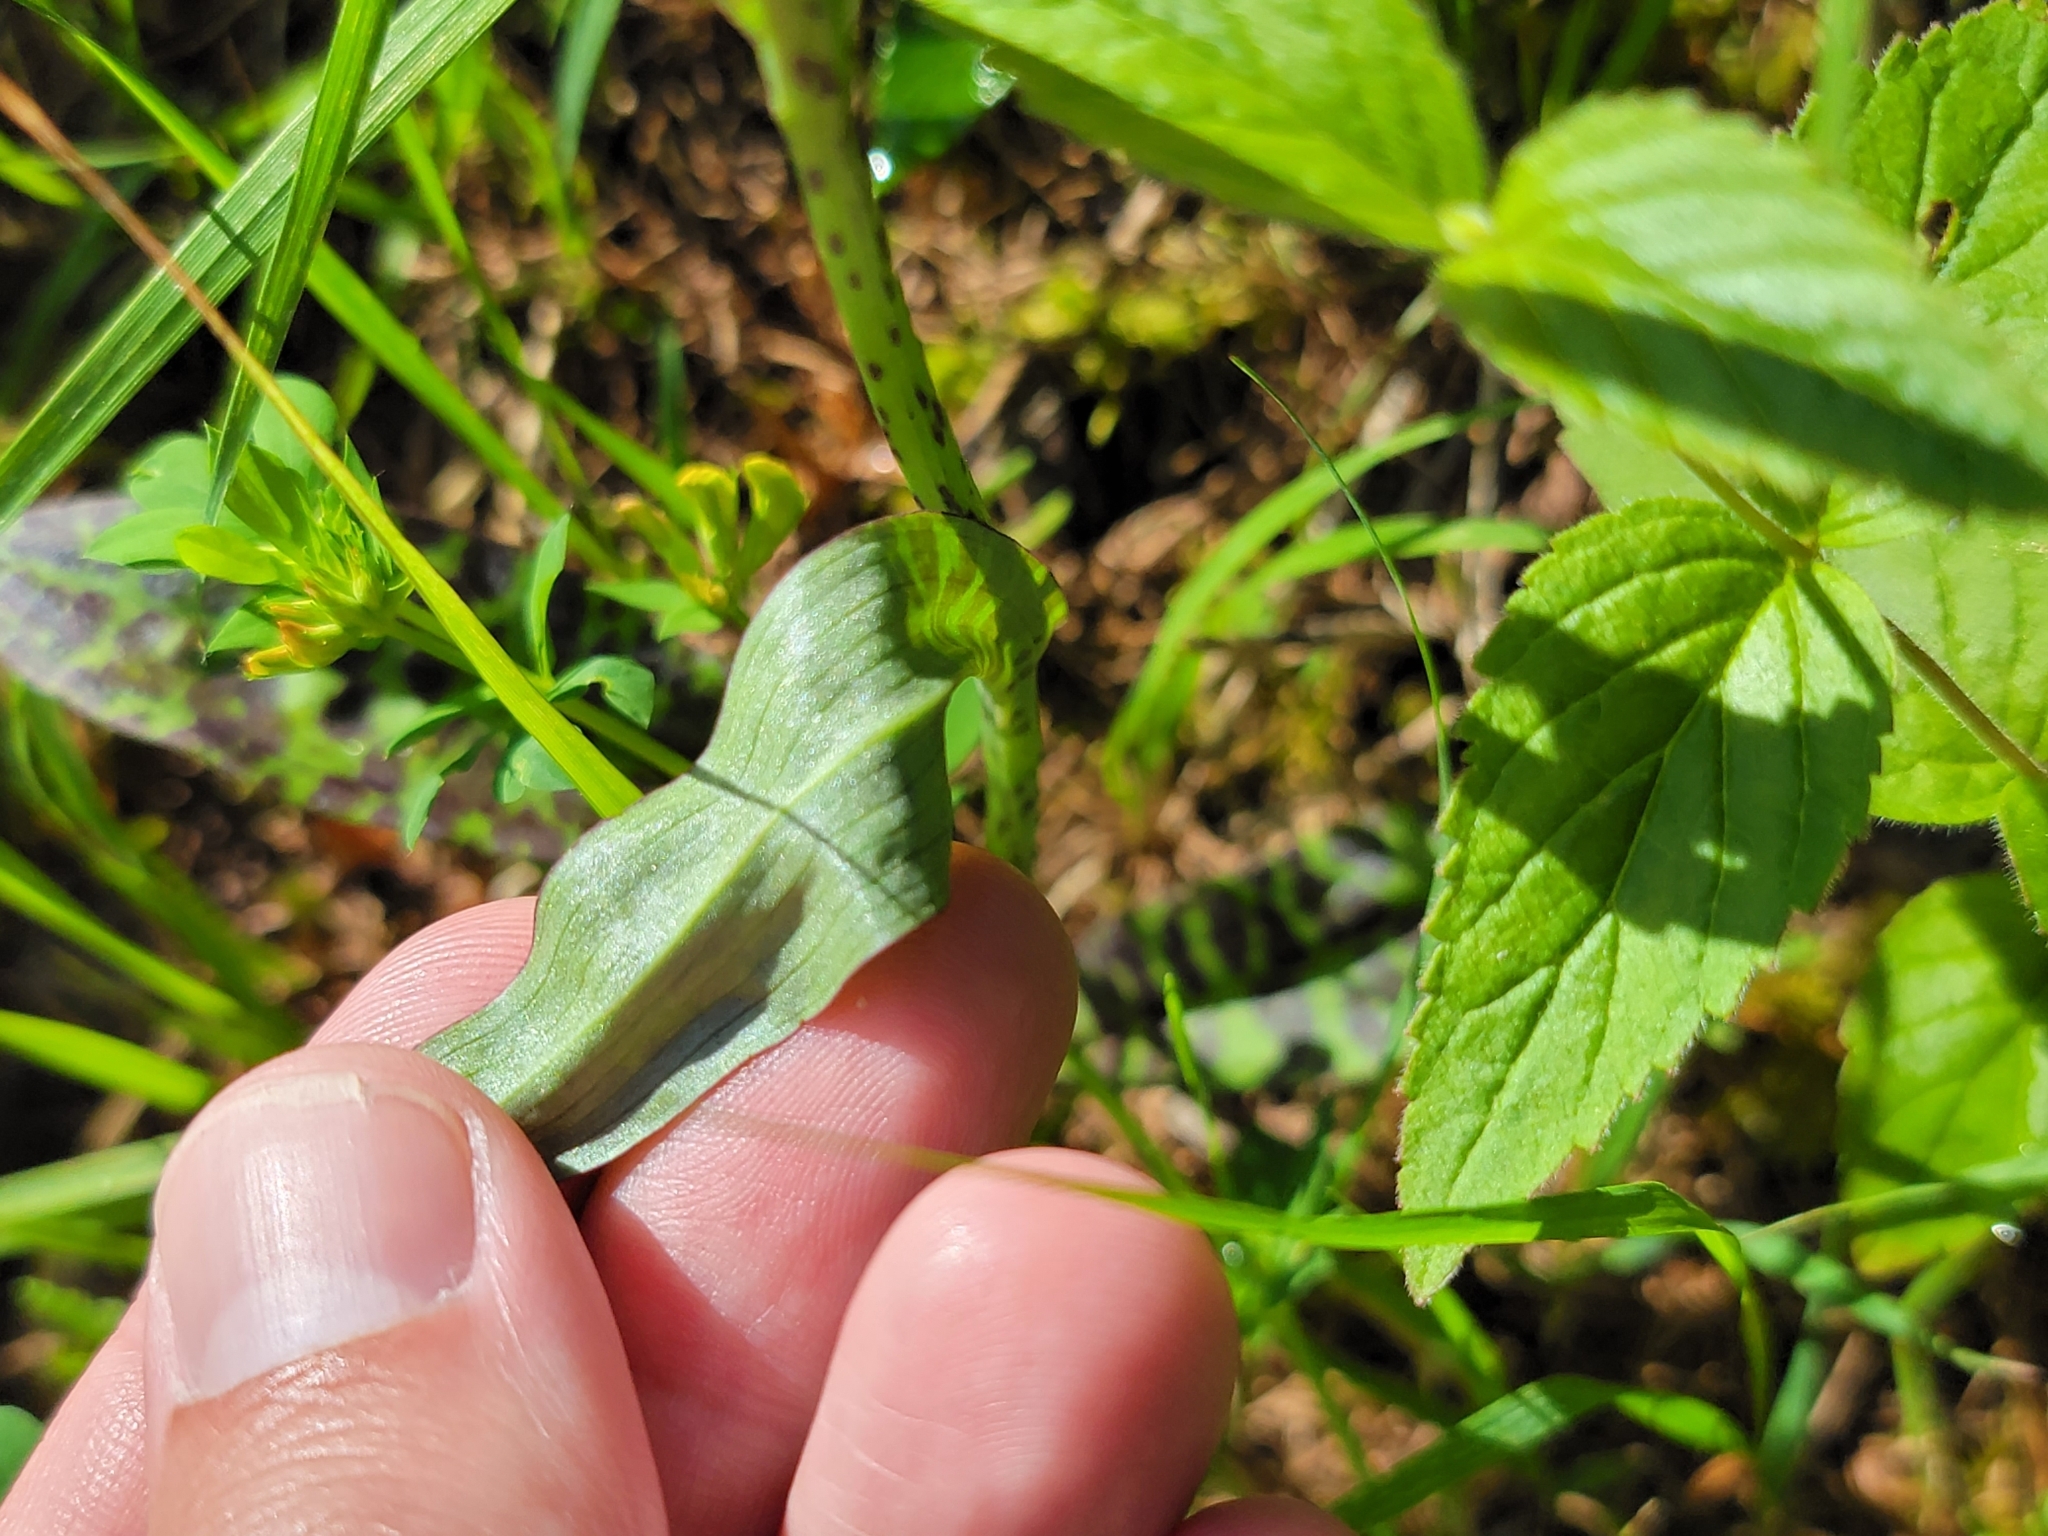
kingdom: Plantae
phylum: Tracheophyta
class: Liliopsida
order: Asparagales
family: Orchidaceae
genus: Dactylorhiza
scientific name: Dactylorhiza majalis
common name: Marsh orchid
